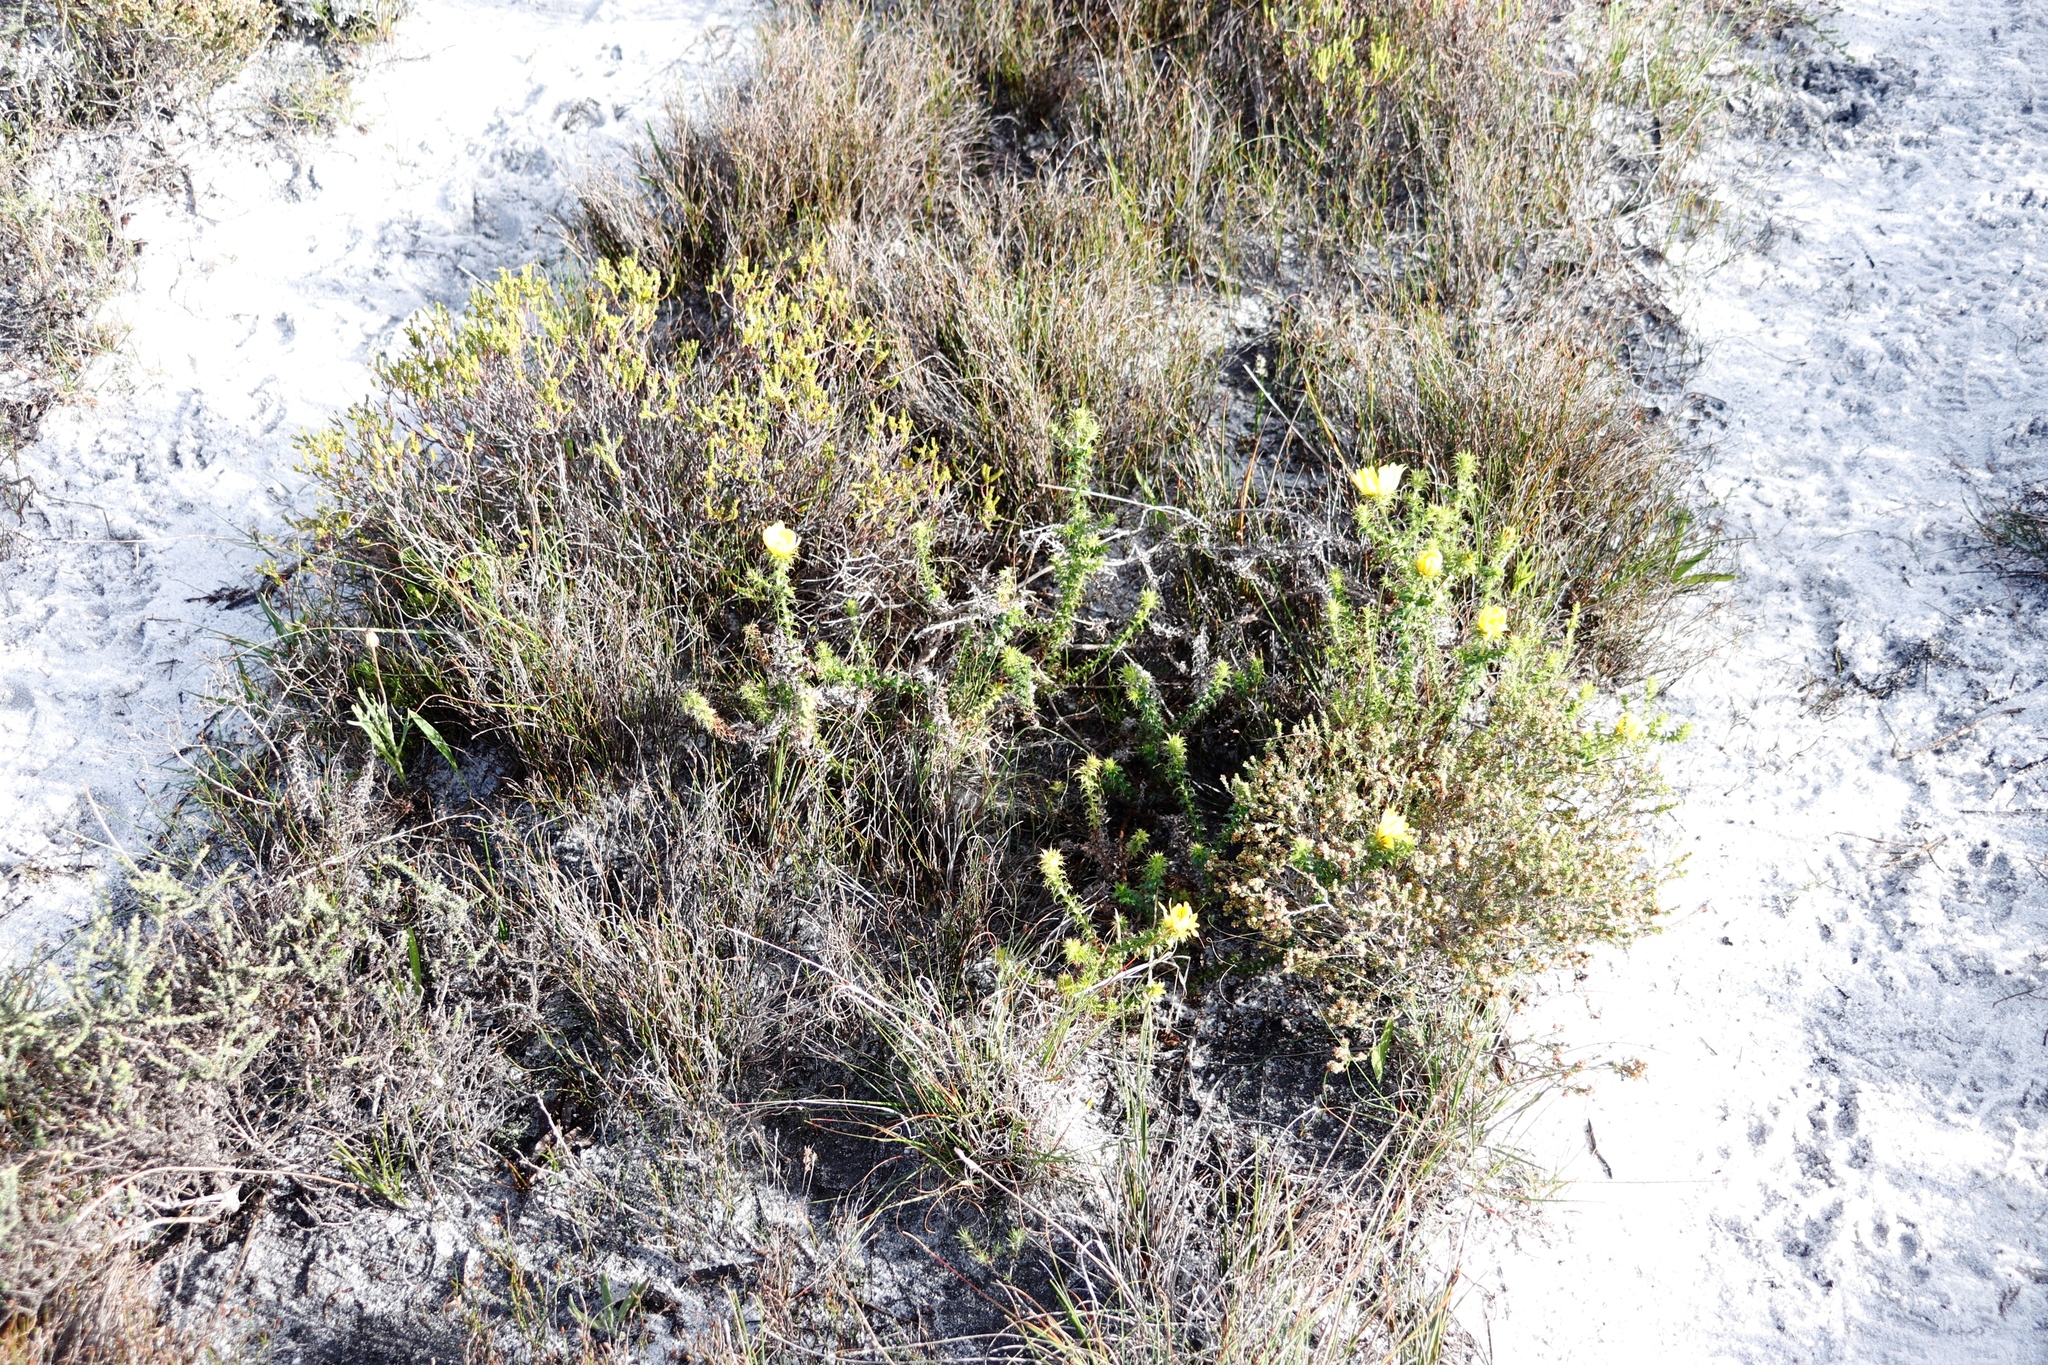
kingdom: Plantae
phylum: Tracheophyta
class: Magnoliopsida
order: Asterales
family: Asteraceae
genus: Cullumia
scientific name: Cullumia setosa
